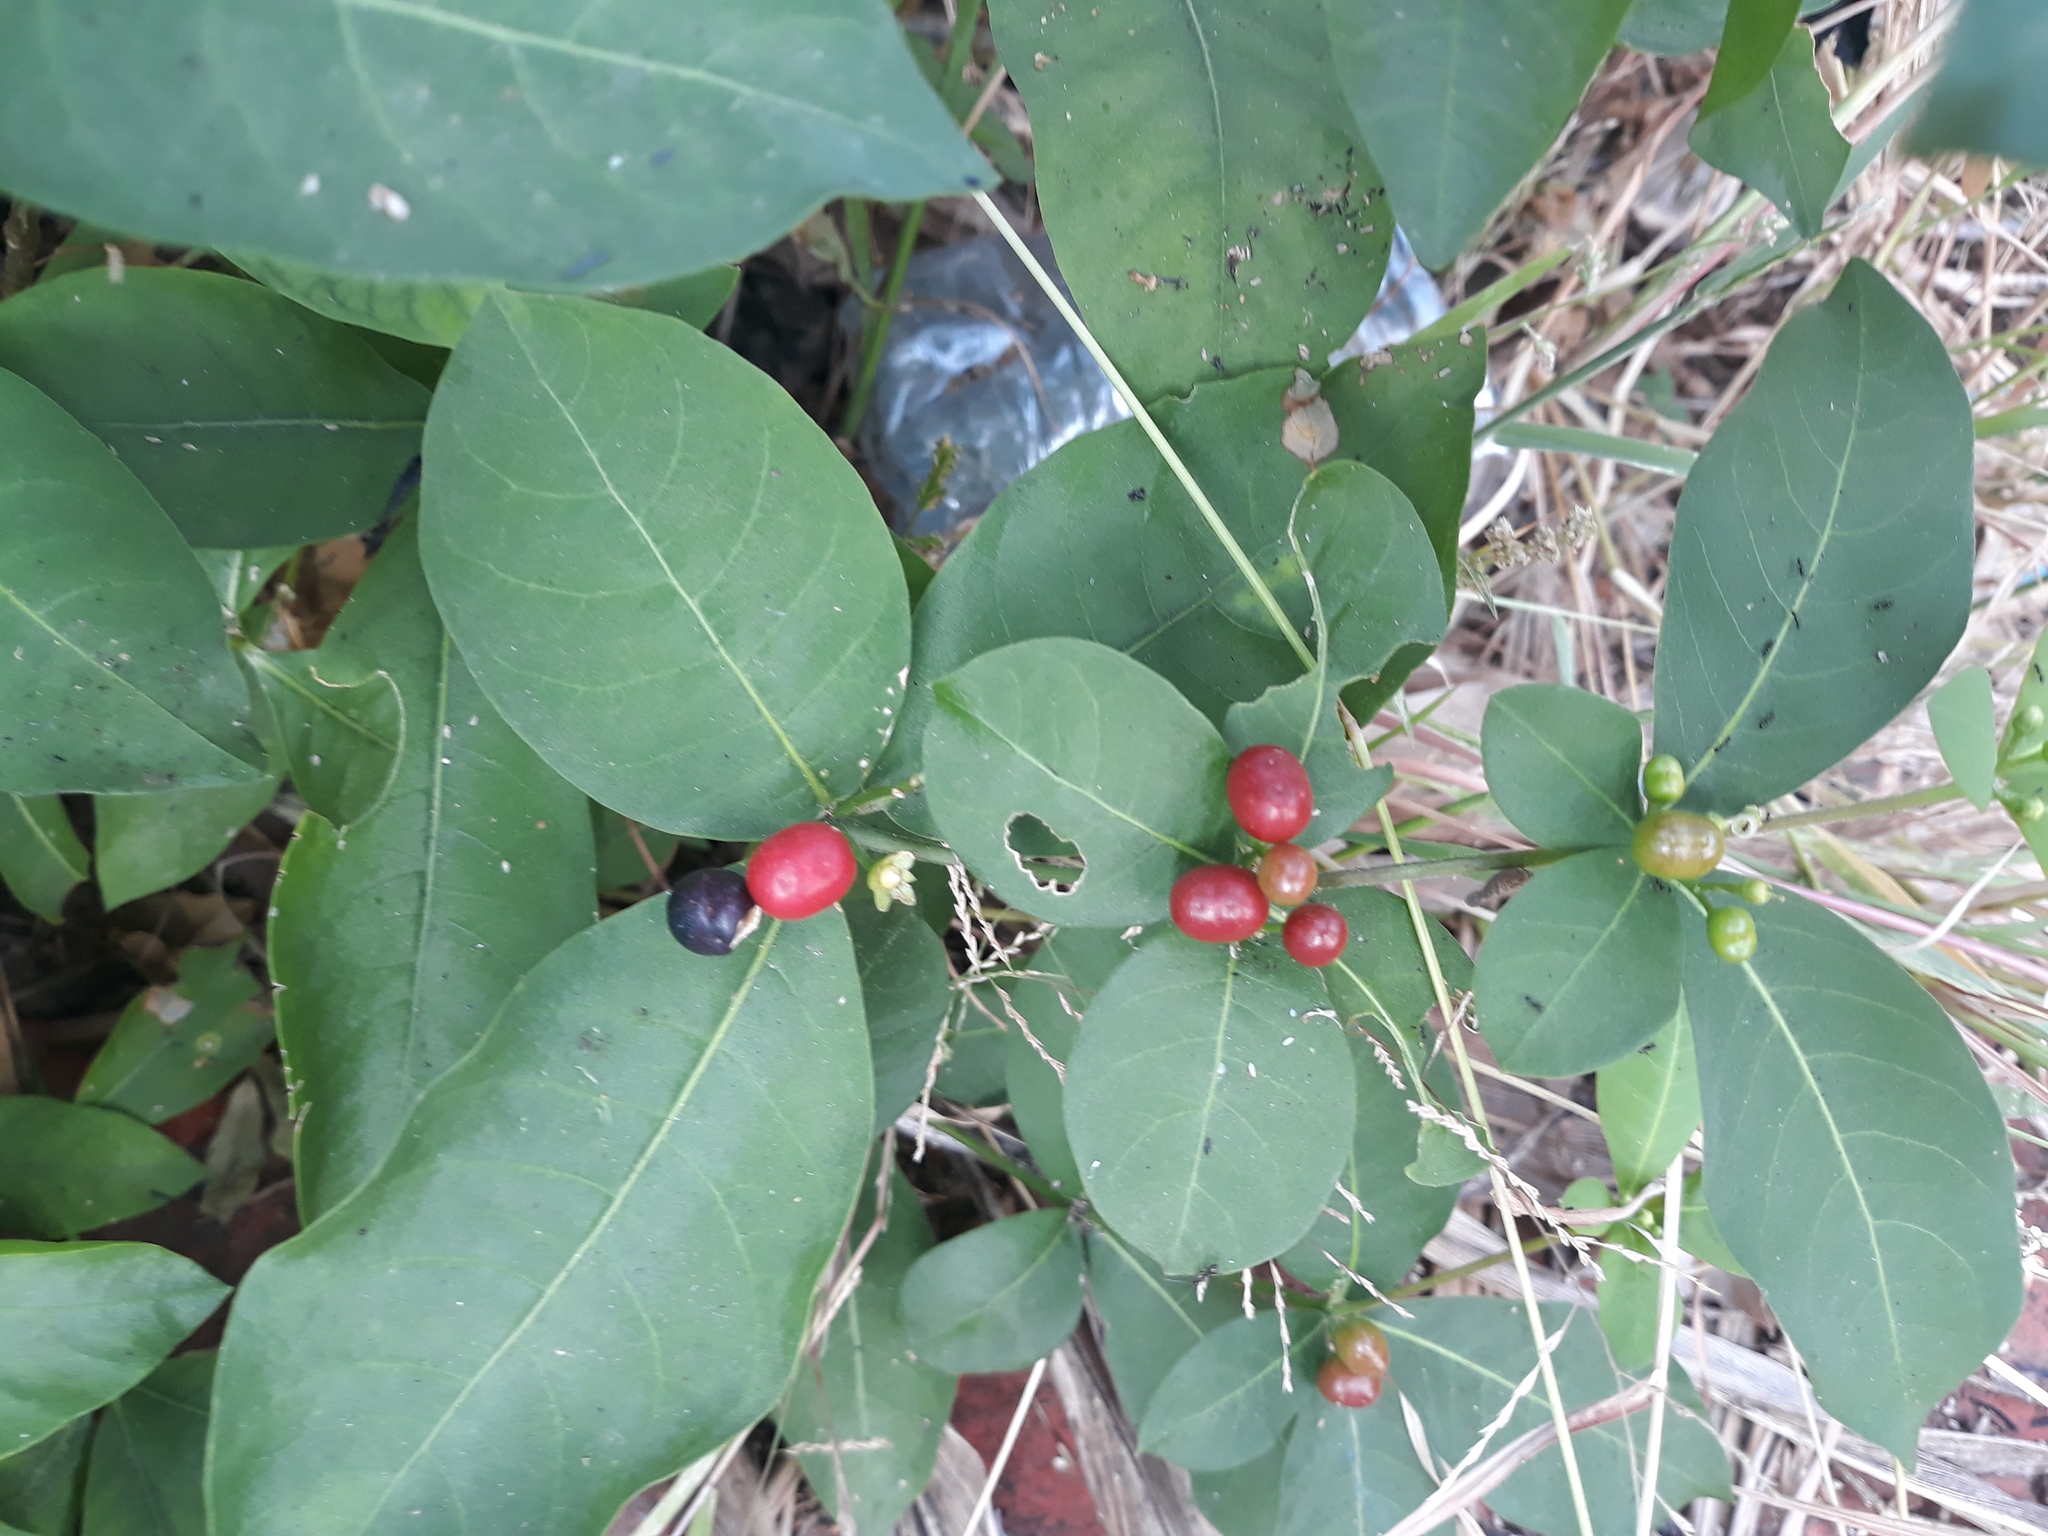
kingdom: Plantae
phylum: Tracheophyta
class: Magnoliopsida
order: Gentianales
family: Apocynaceae
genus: Rauvolfia
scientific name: Rauvolfia tetraphylla
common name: Four-leaf devil-pepper
